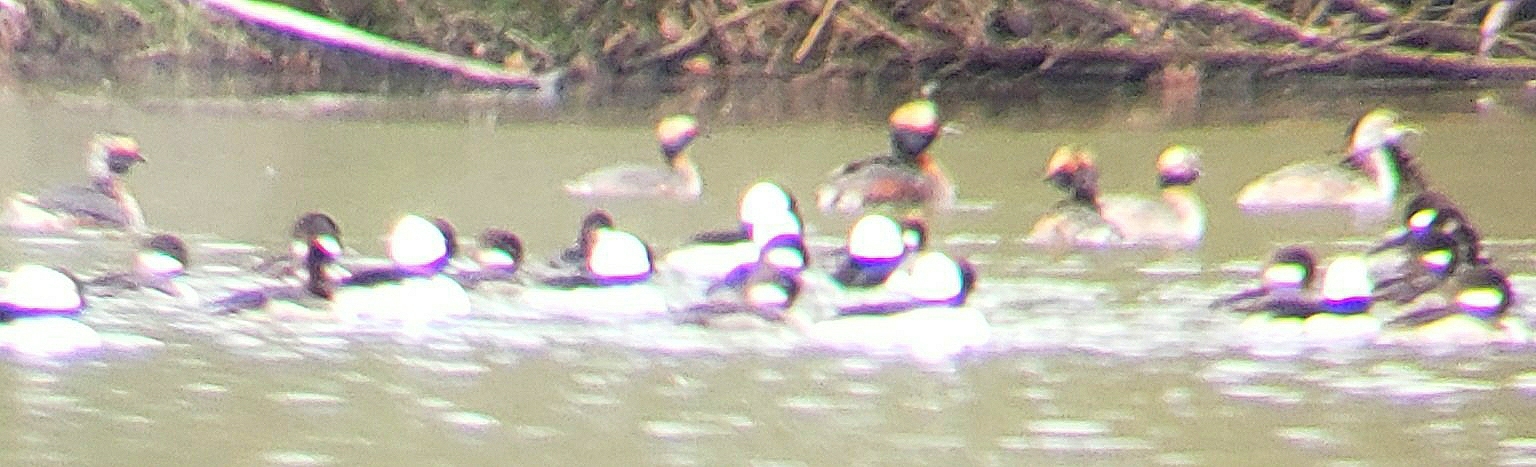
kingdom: Animalia
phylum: Chordata
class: Aves
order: Anseriformes
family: Anatidae
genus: Bucephala
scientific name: Bucephala albeola
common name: Bufflehead
